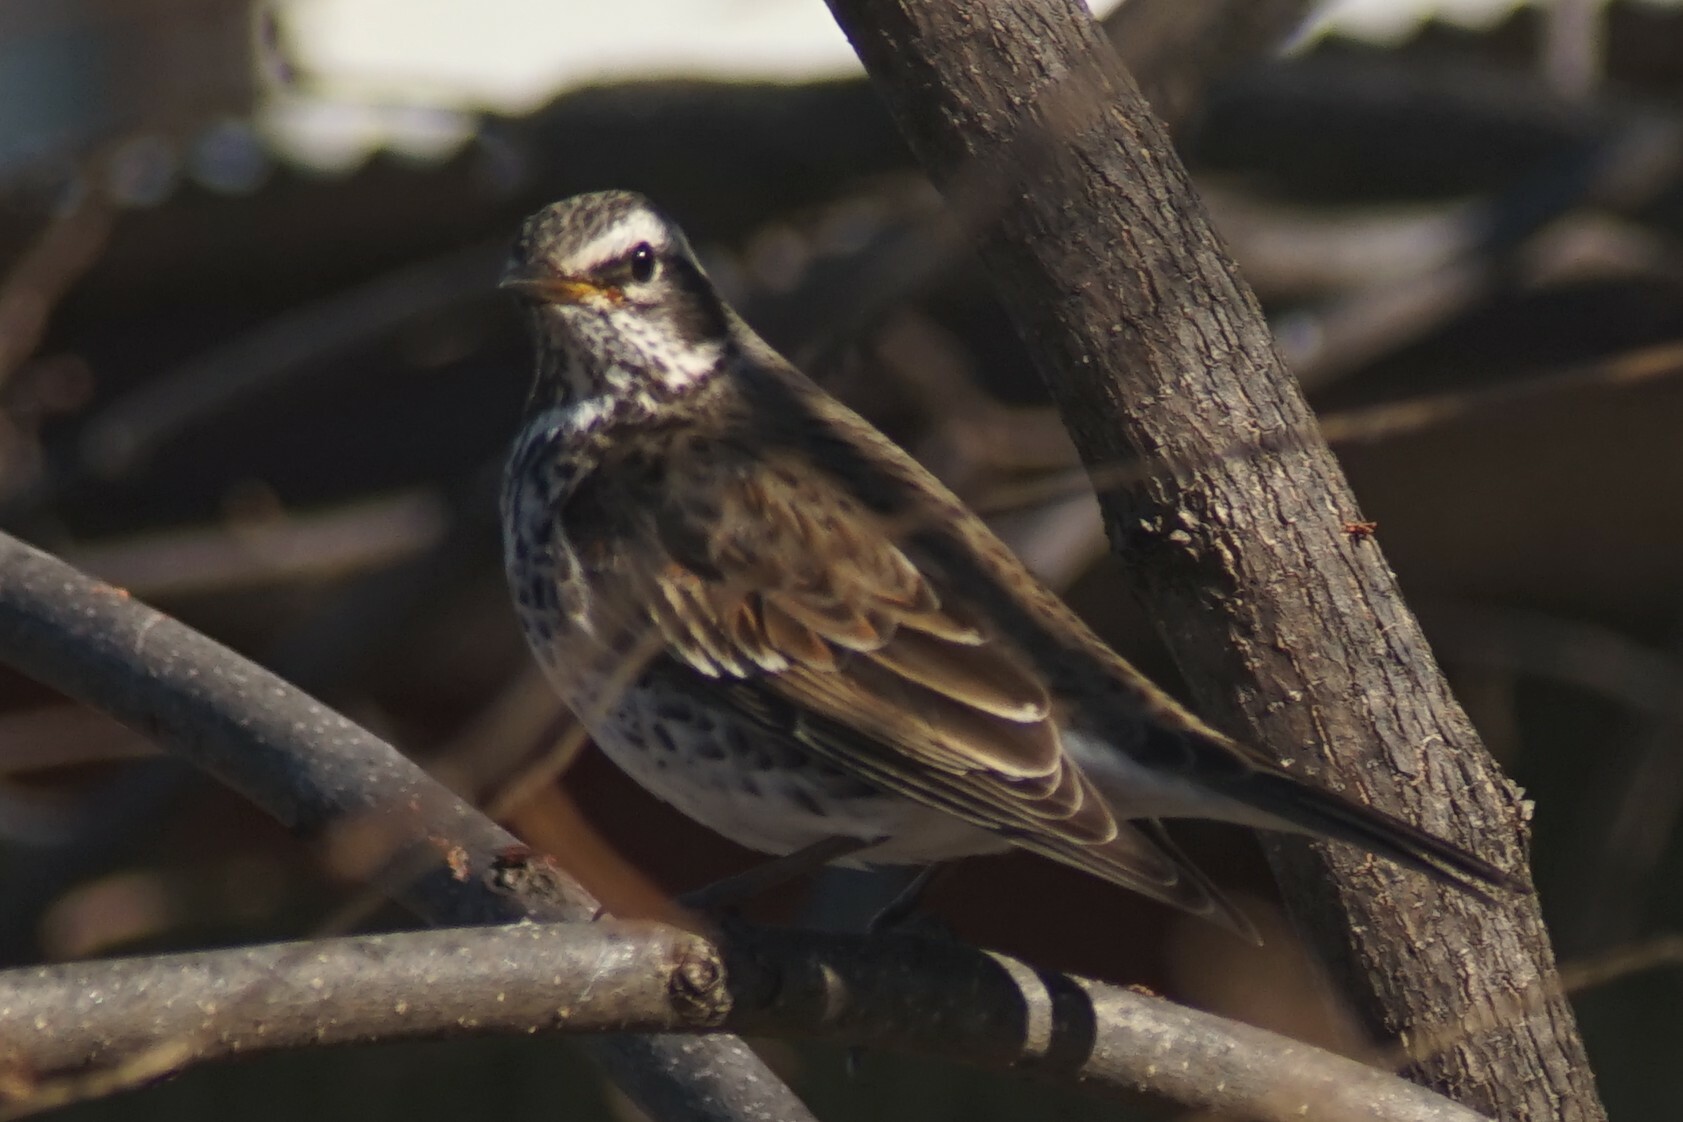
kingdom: Animalia
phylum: Chordata
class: Aves
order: Passeriformes
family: Turdidae
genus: Turdus
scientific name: Turdus eunomus
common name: Dusky thrush
